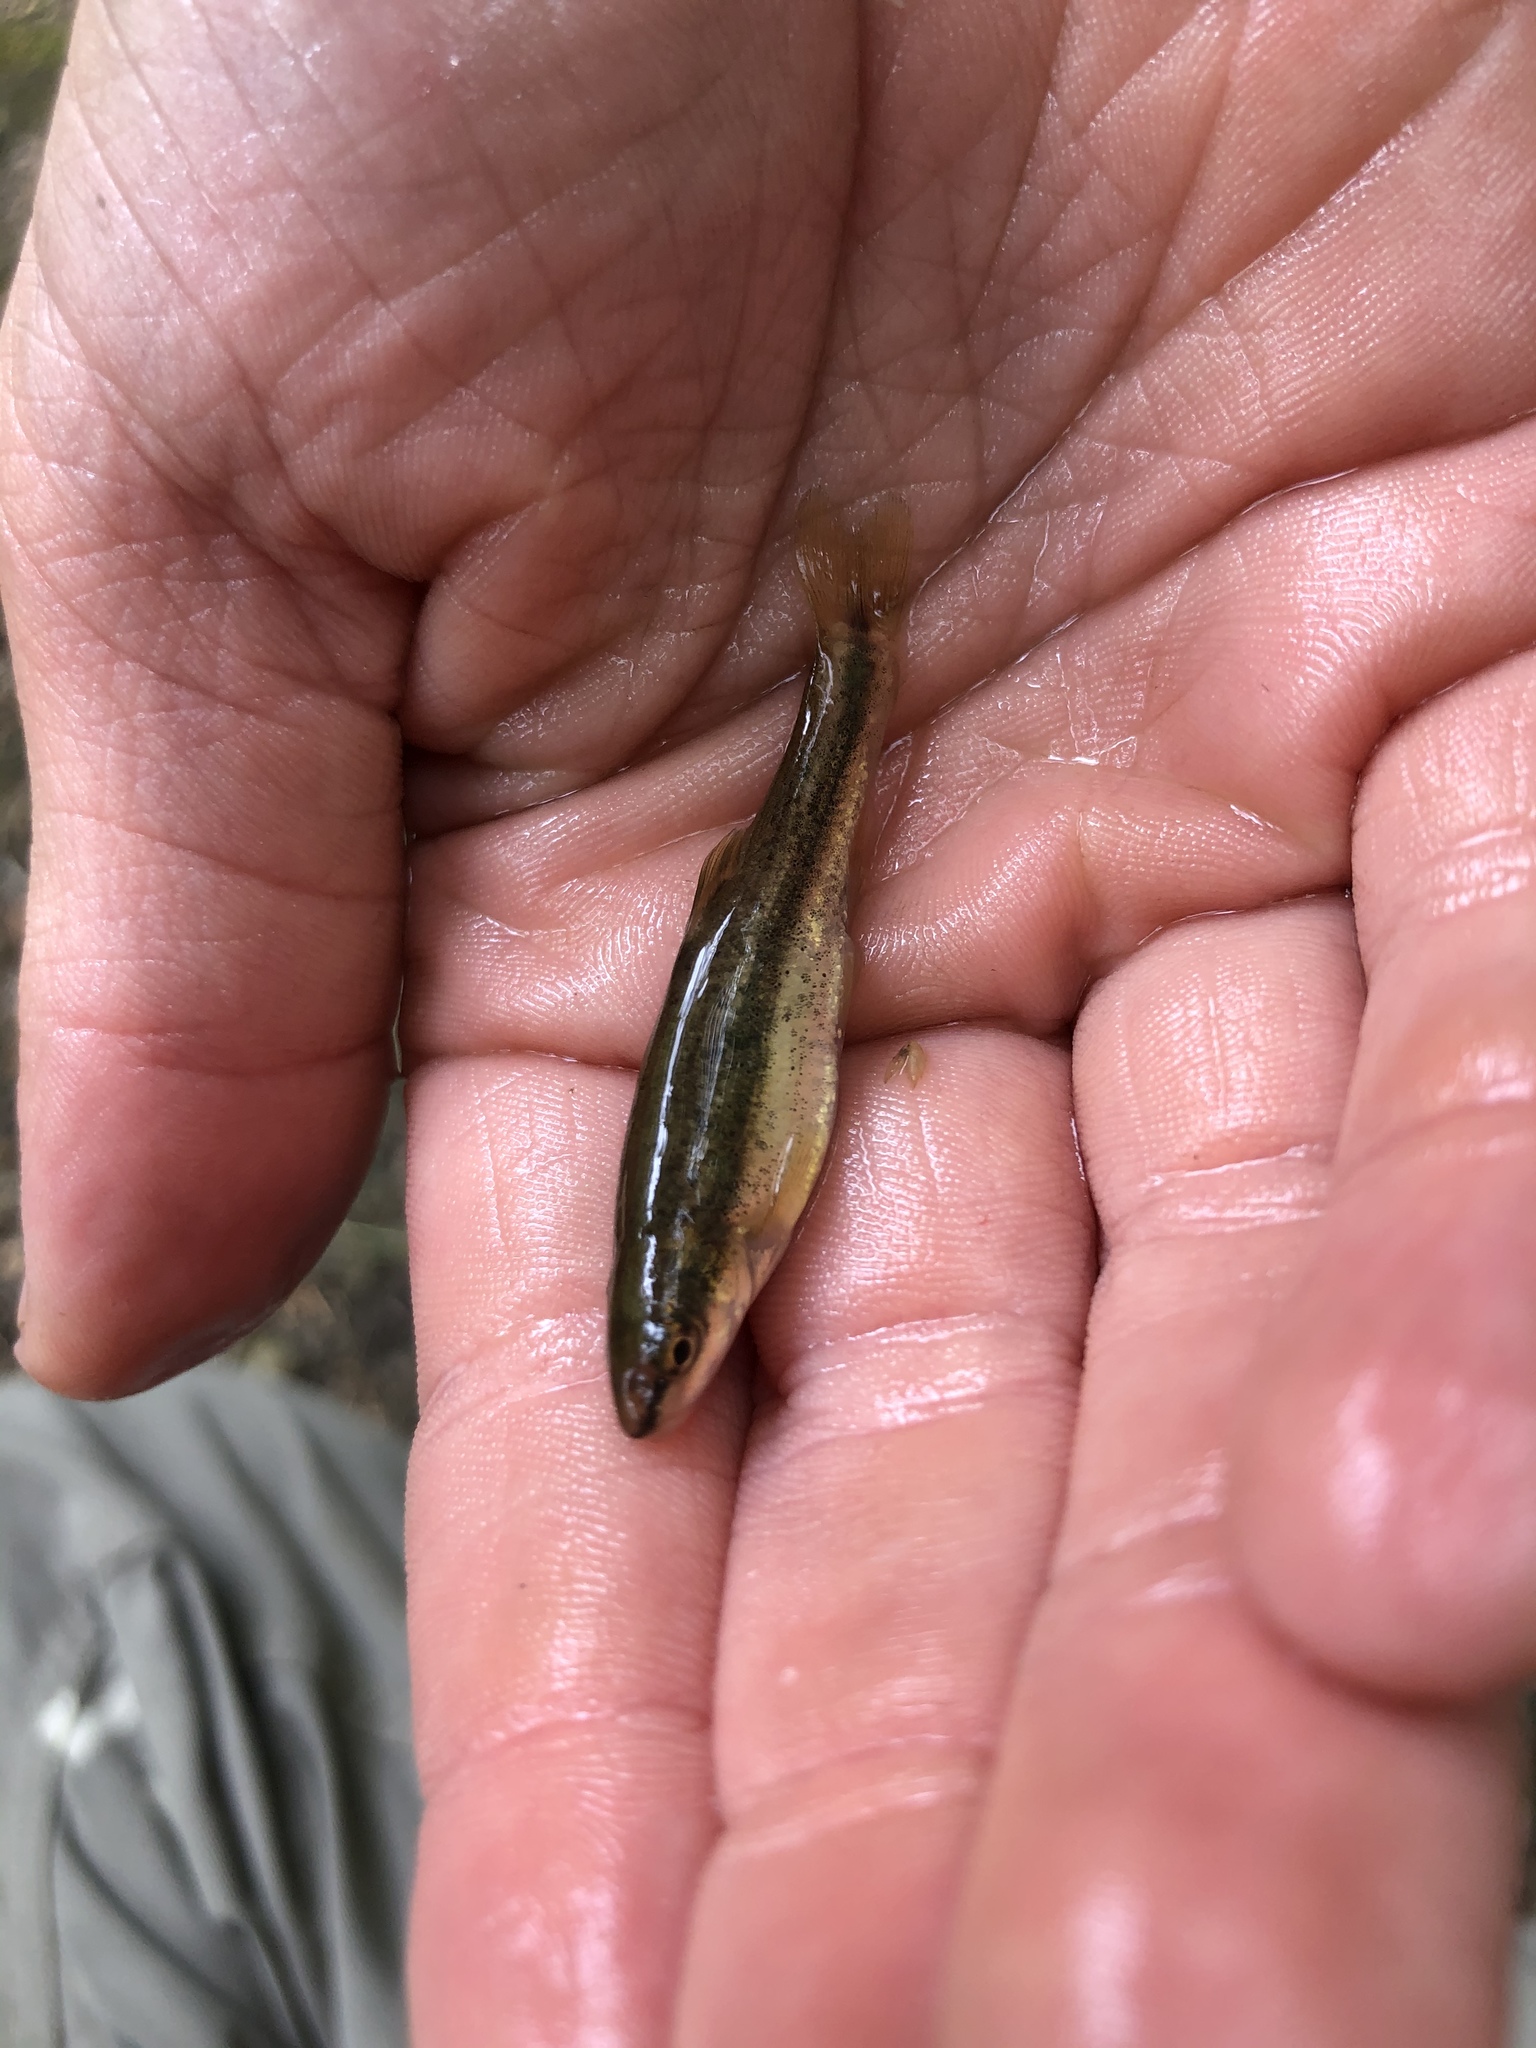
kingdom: Animalia
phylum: Chordata
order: Cypriniformes
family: Cyprinidae
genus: Rhinichthys
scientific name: Rhinichthys obtusus
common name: Western blacknose dace
